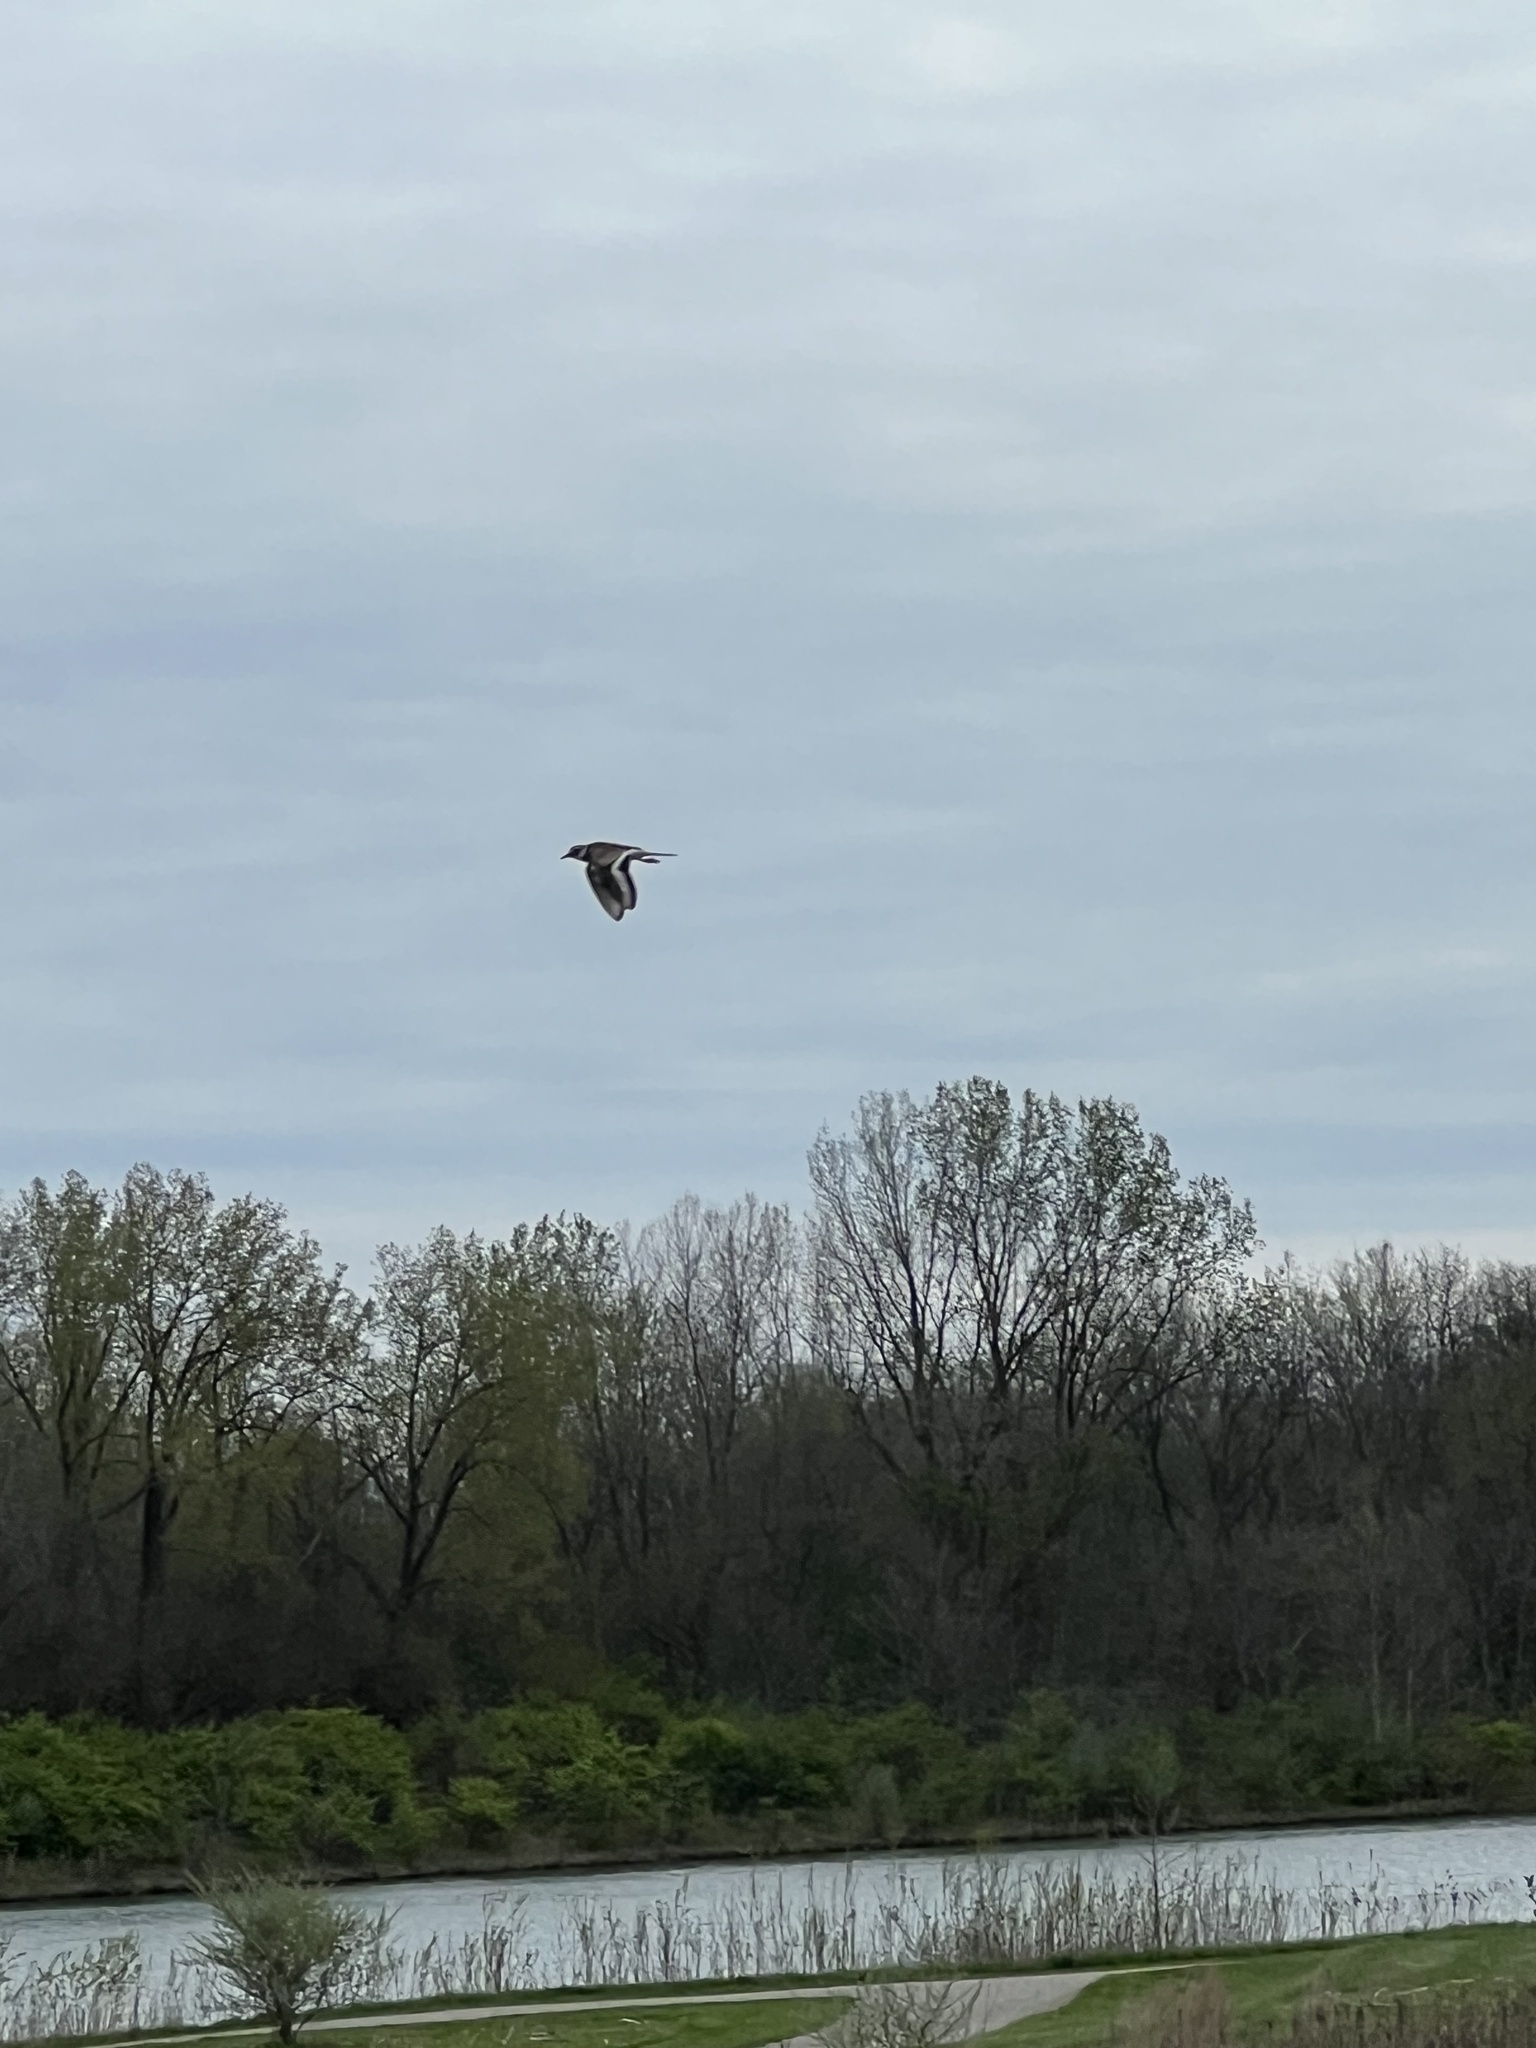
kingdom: Animalia
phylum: Chordata
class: Aves
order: Charadriiformes
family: Charadriidae
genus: Charadrius
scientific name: Charadrius vociferus
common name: Killdeer
